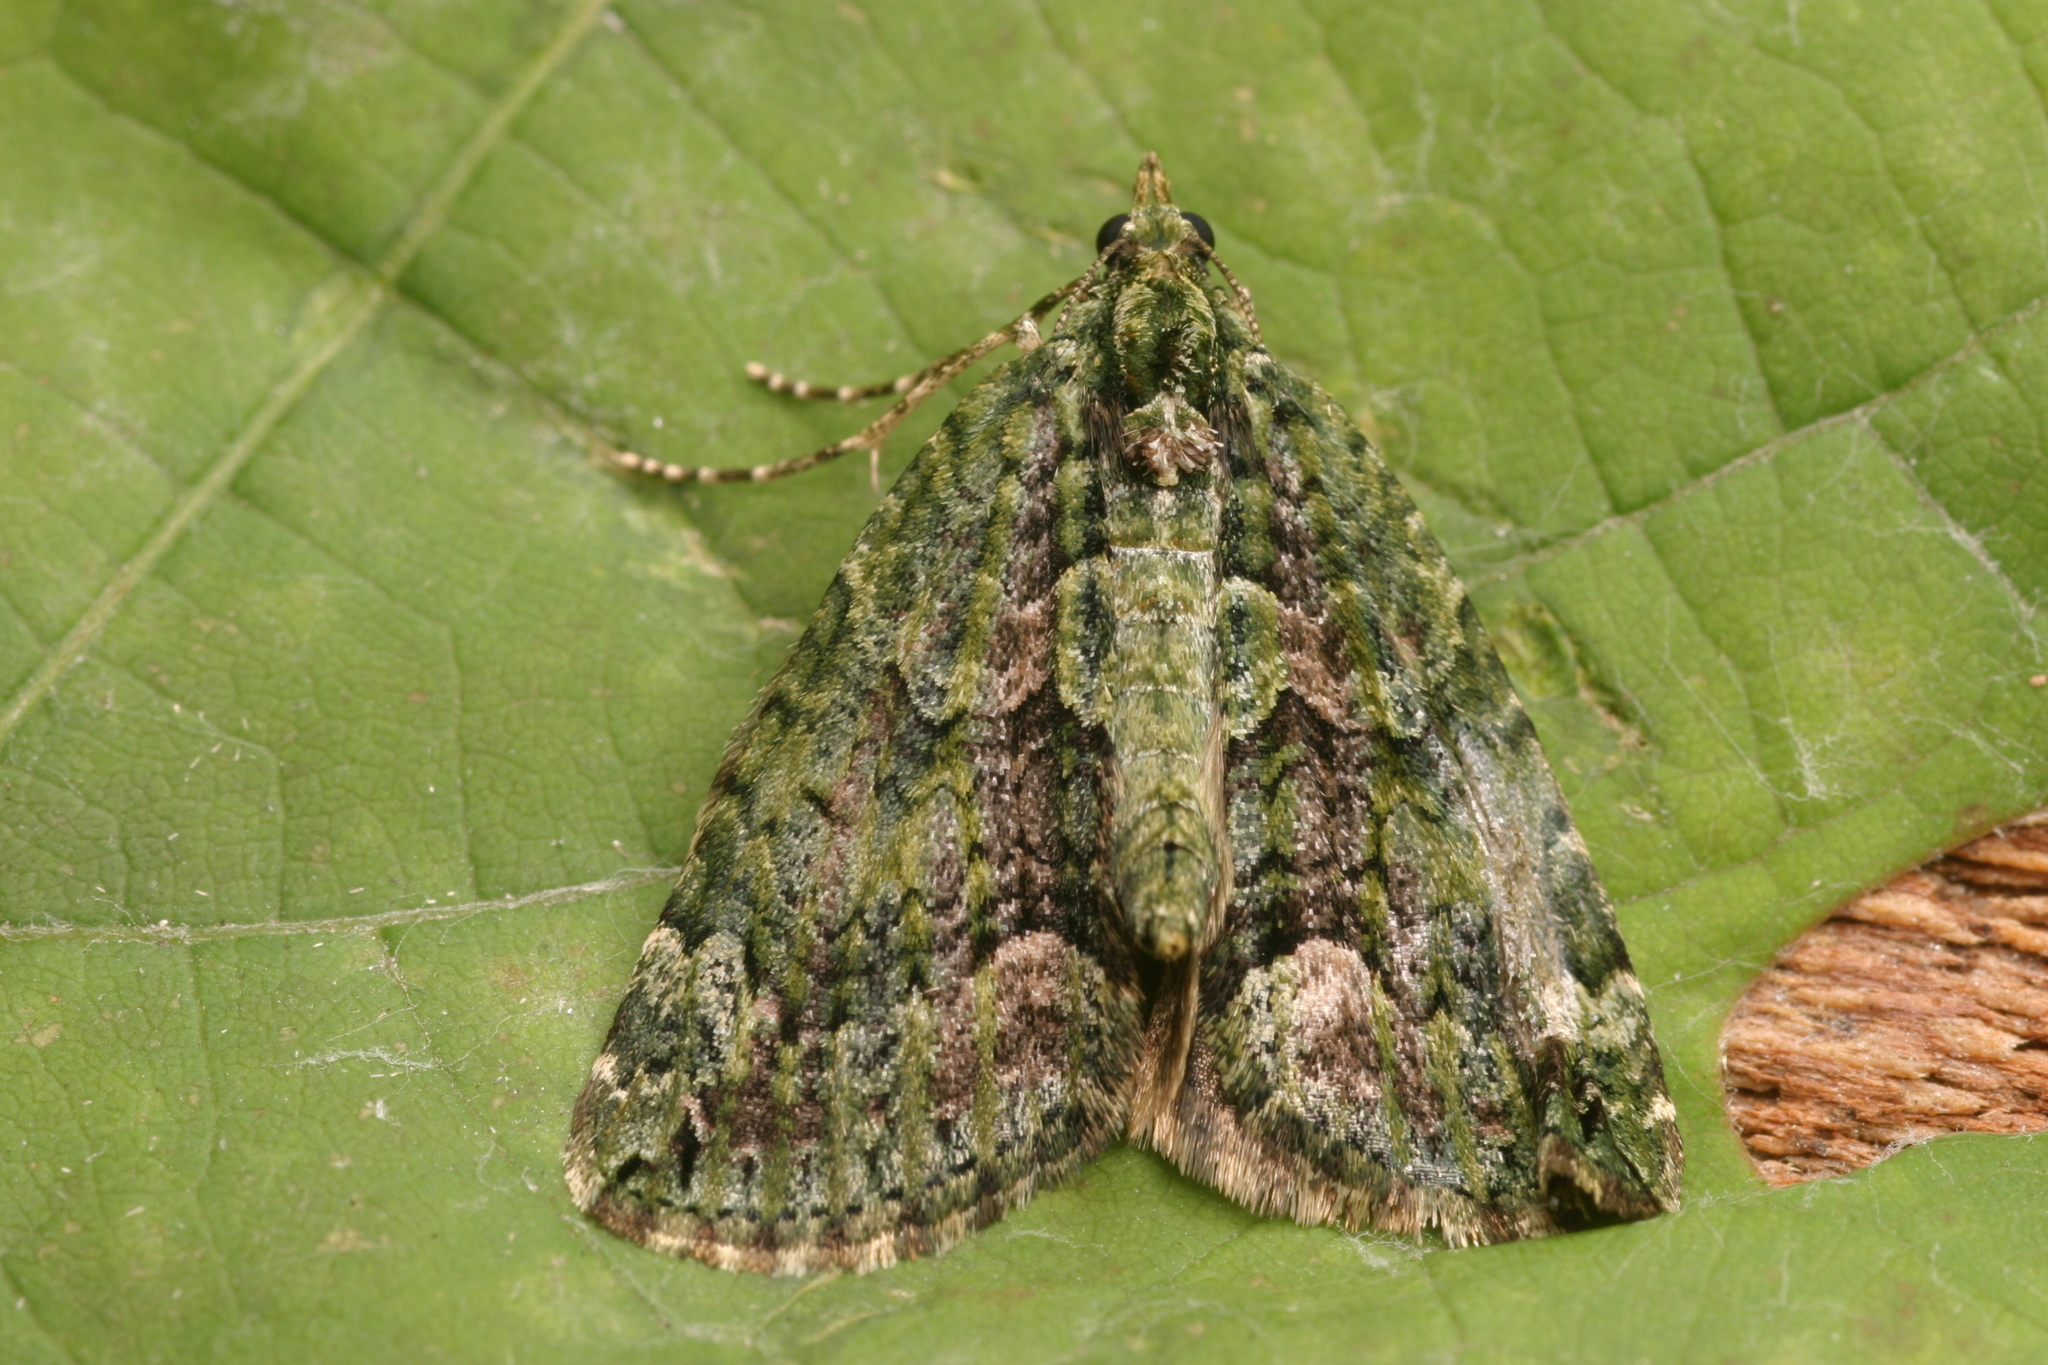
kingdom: Animalia
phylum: Arthropoda
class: Insecta
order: Lepidoptera
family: Geometridae
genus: Chloroclysta
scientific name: Chloroclysta siterata
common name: Red-green carpet
